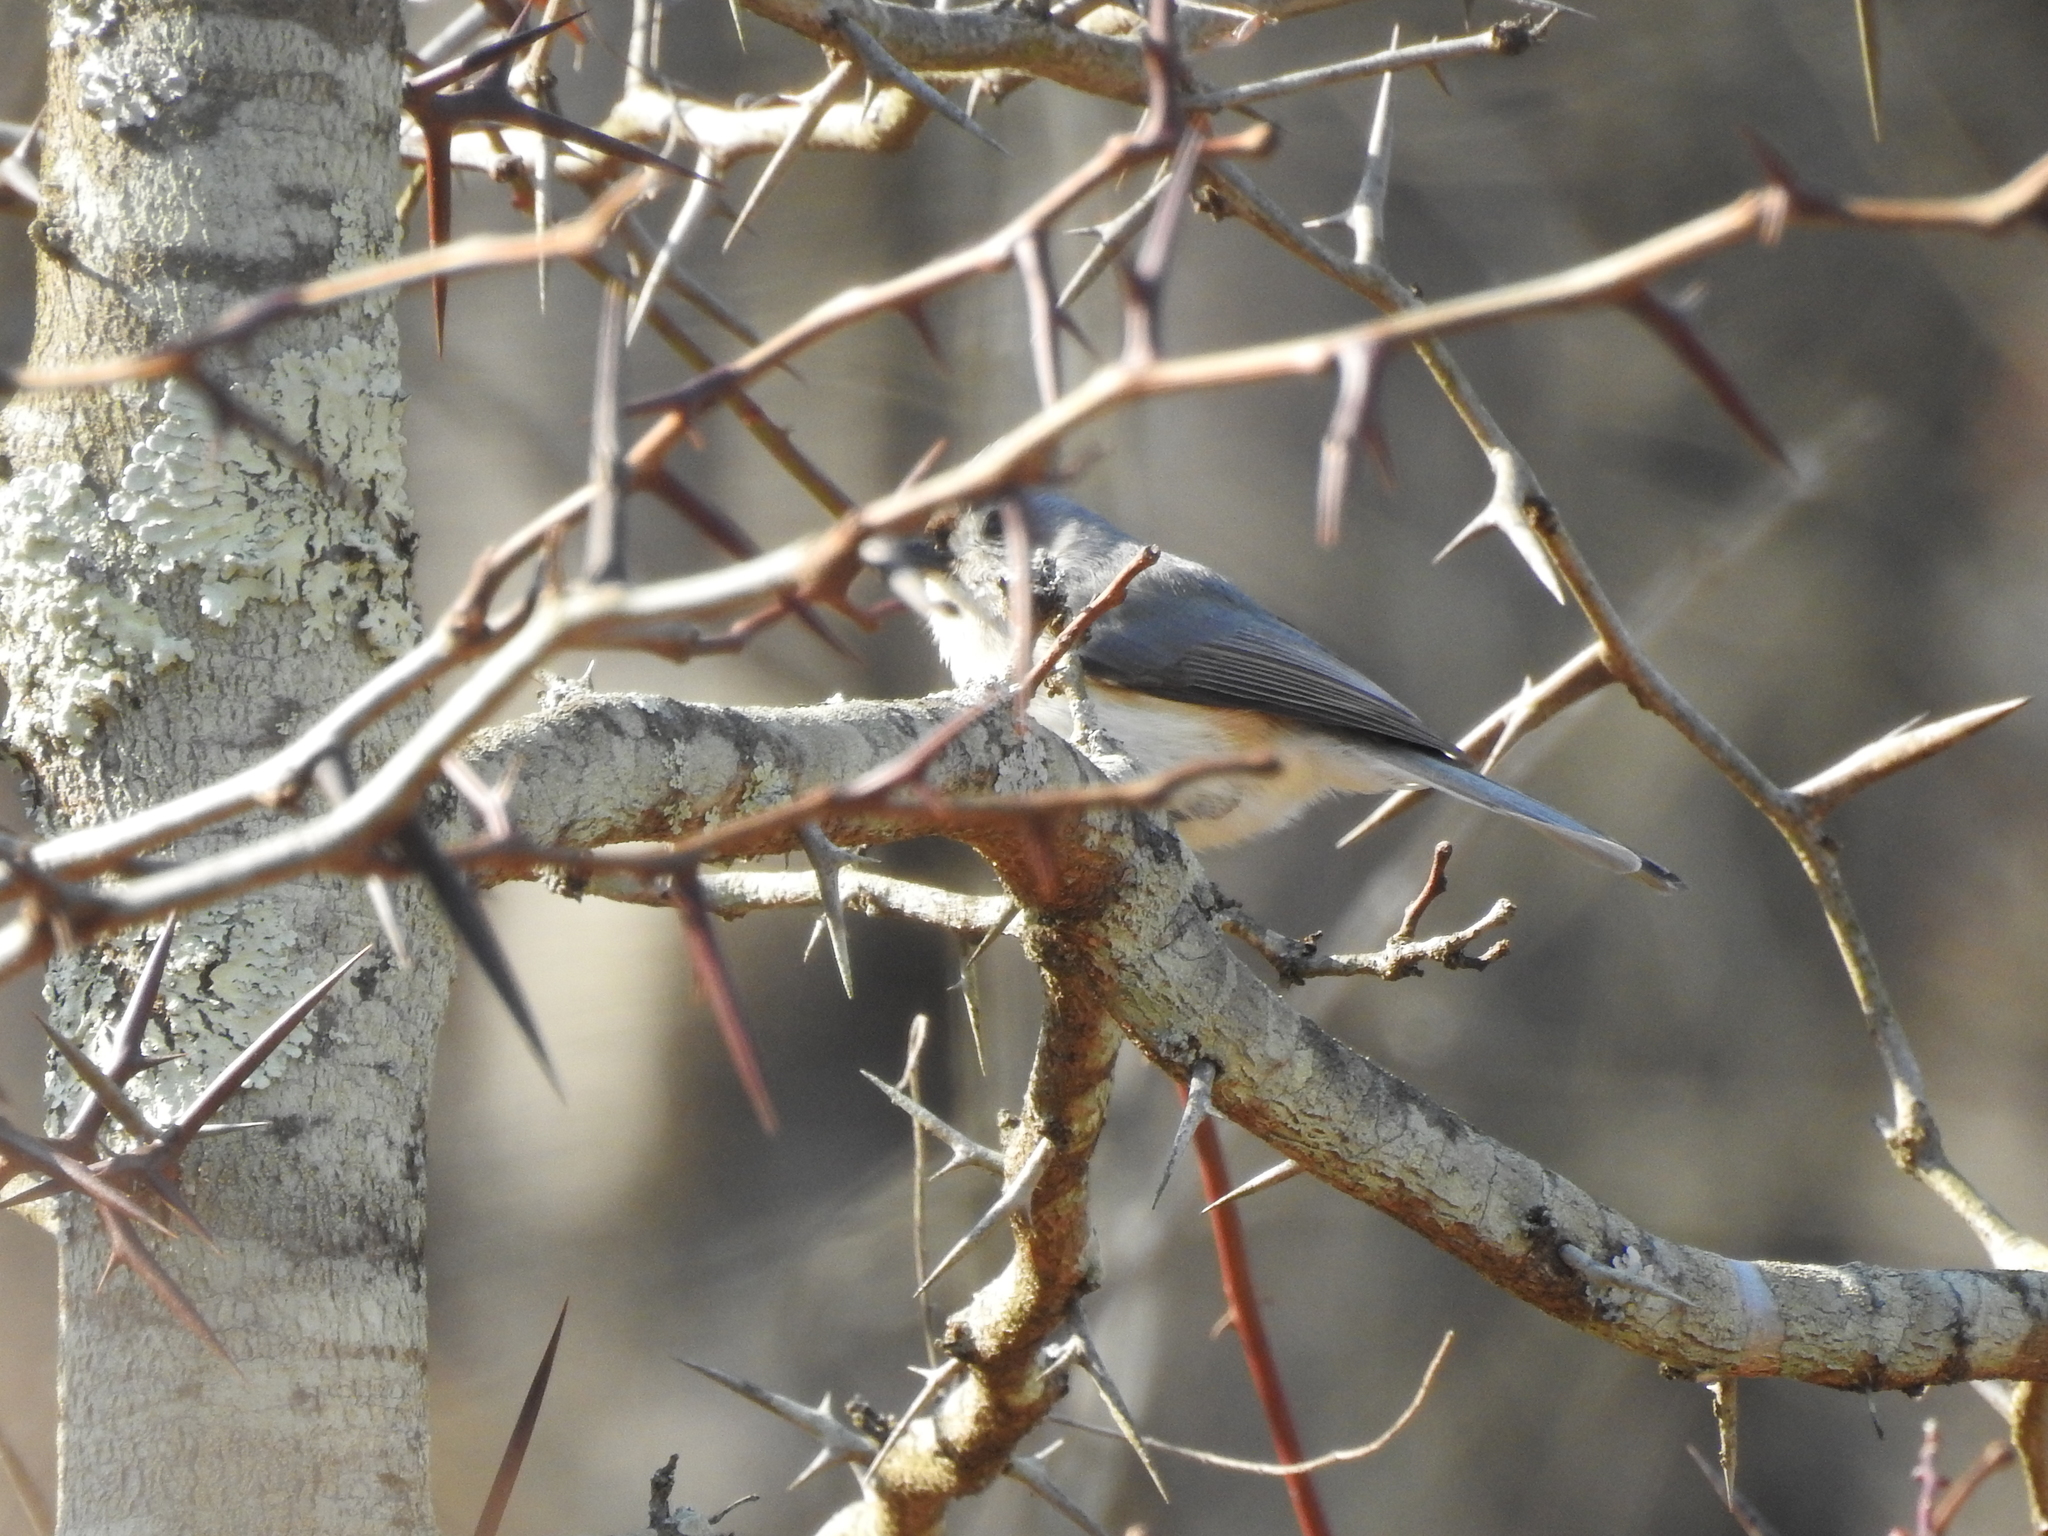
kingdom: Animalia
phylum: Chordata
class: Aves
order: Passeriformes
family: Paridae
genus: Baeolophus
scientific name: Baeolophus bicolor
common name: Tufted titmouse
